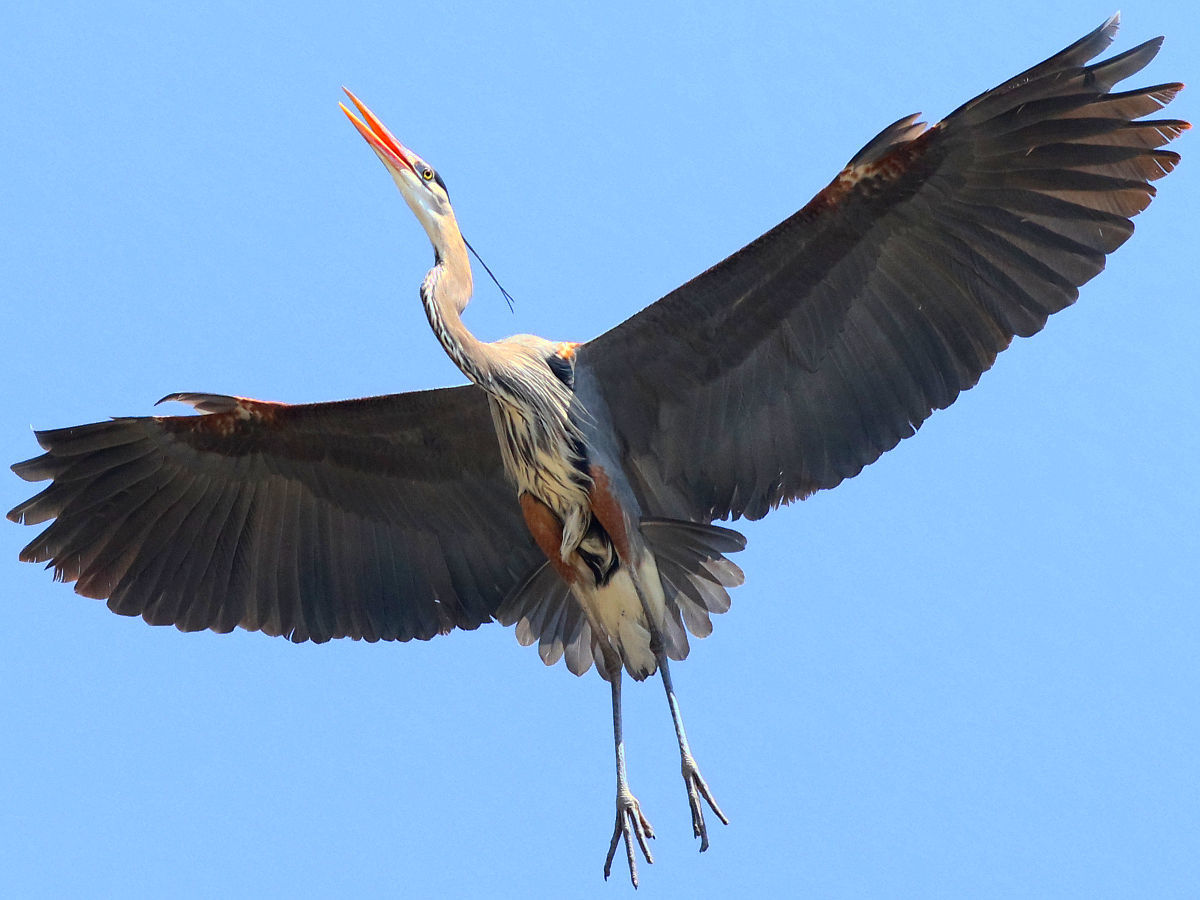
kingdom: Animalia
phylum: Chordata
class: Aves
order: Pelecaniformes
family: Ardeidae
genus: Ardea
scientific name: Ardea herodias
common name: Great blue heron
